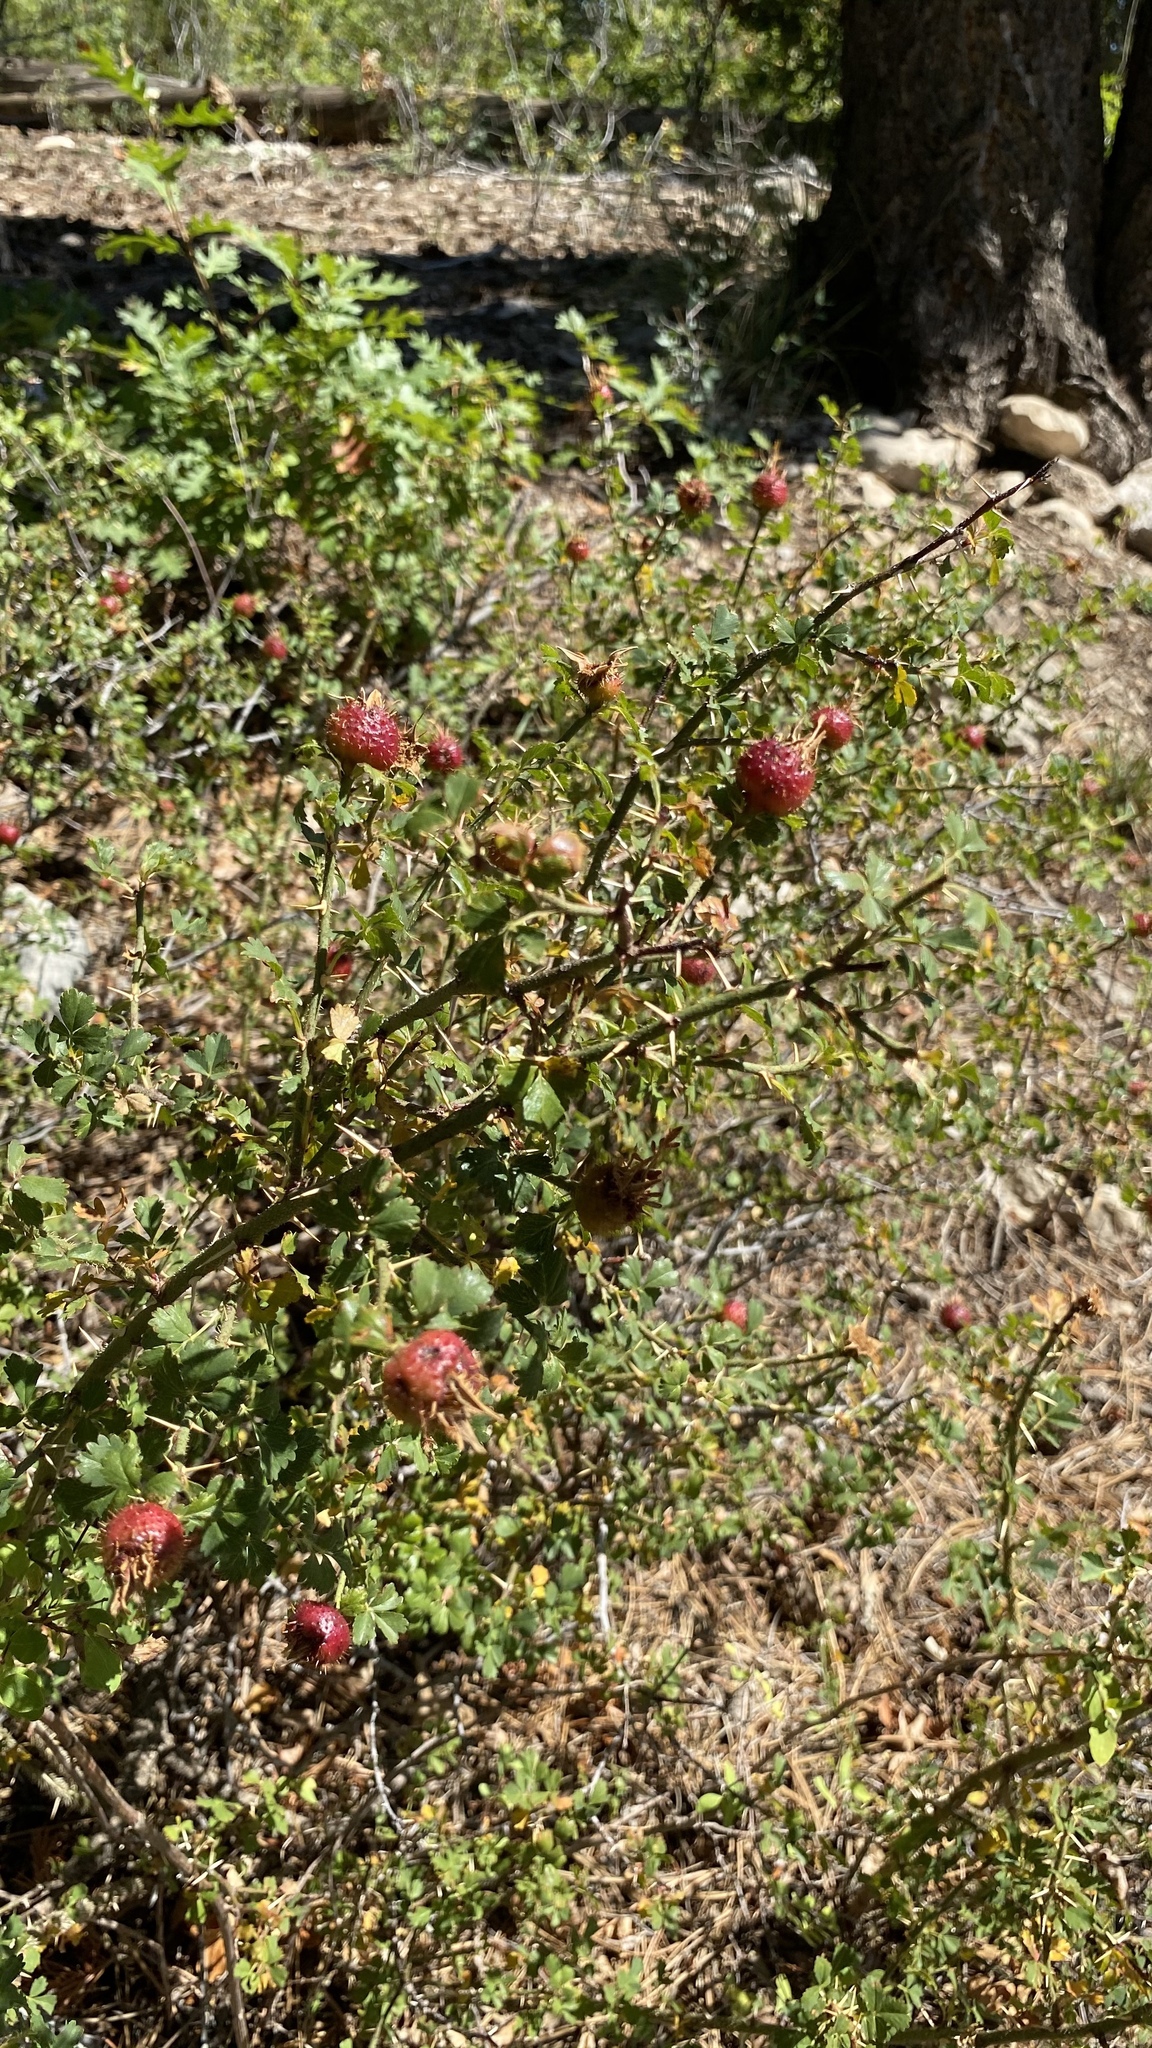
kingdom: Plantae
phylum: Tracheophyta
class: Magnoliopsida
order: Rosales
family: Rosaceae
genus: Rosa
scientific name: Rosa stellata
